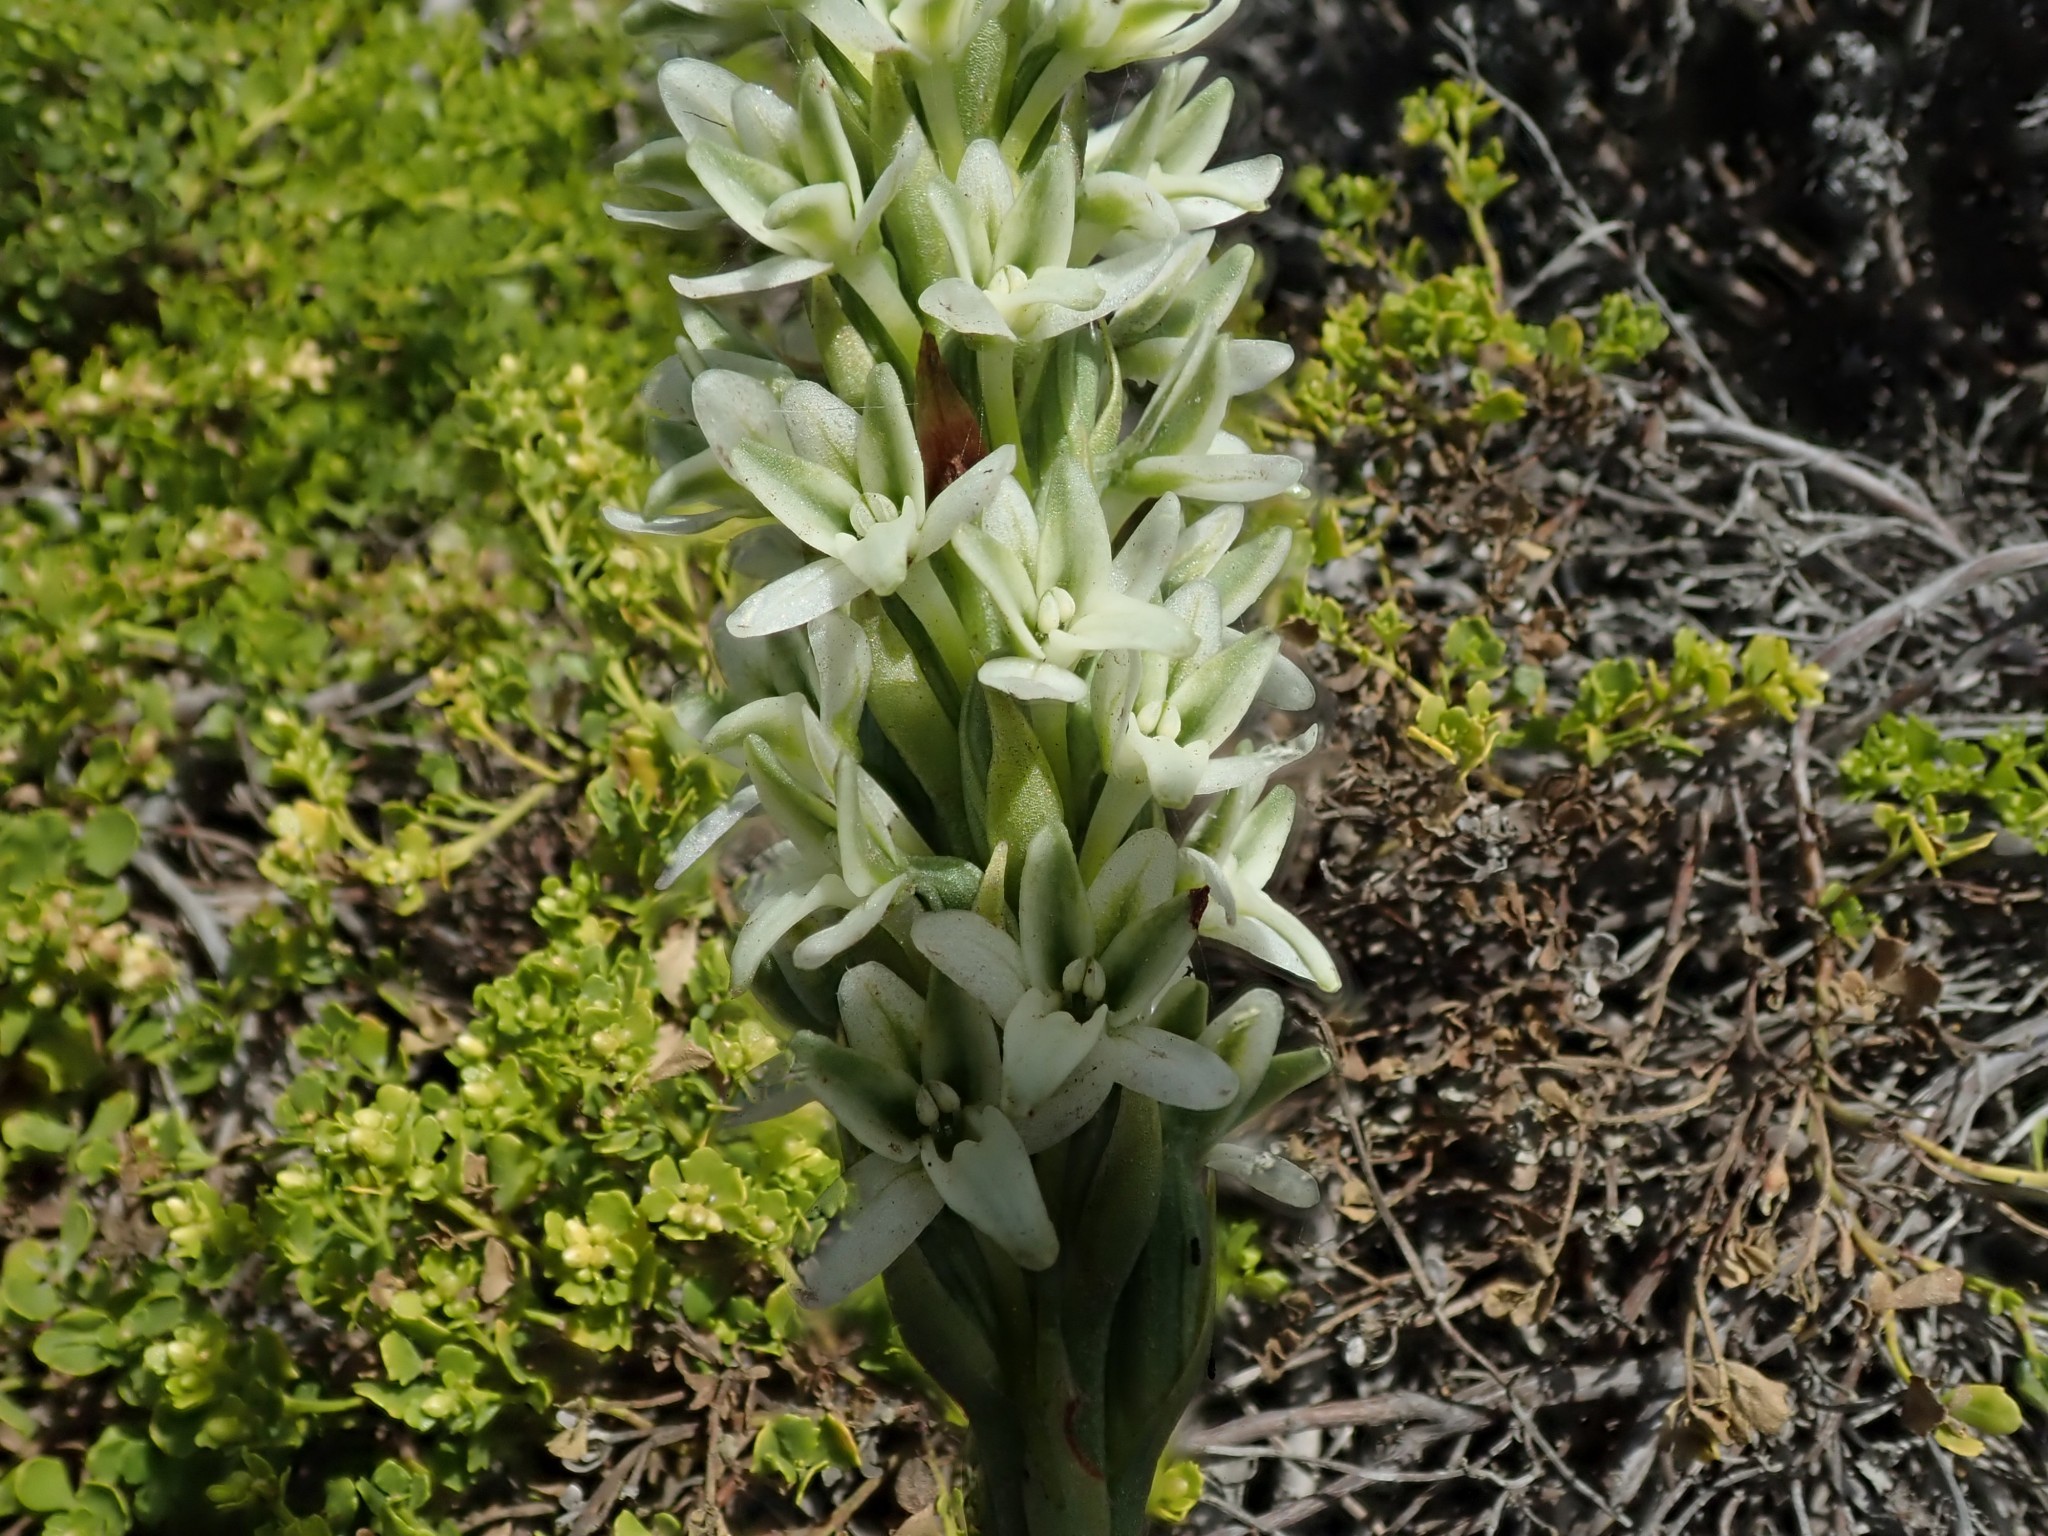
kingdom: Plantae
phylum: Tracheophyta
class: Liliopsida
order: Asparagales
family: Orchidaceae
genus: Platanthera
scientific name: Platanthera elegans
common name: Coast piperia
